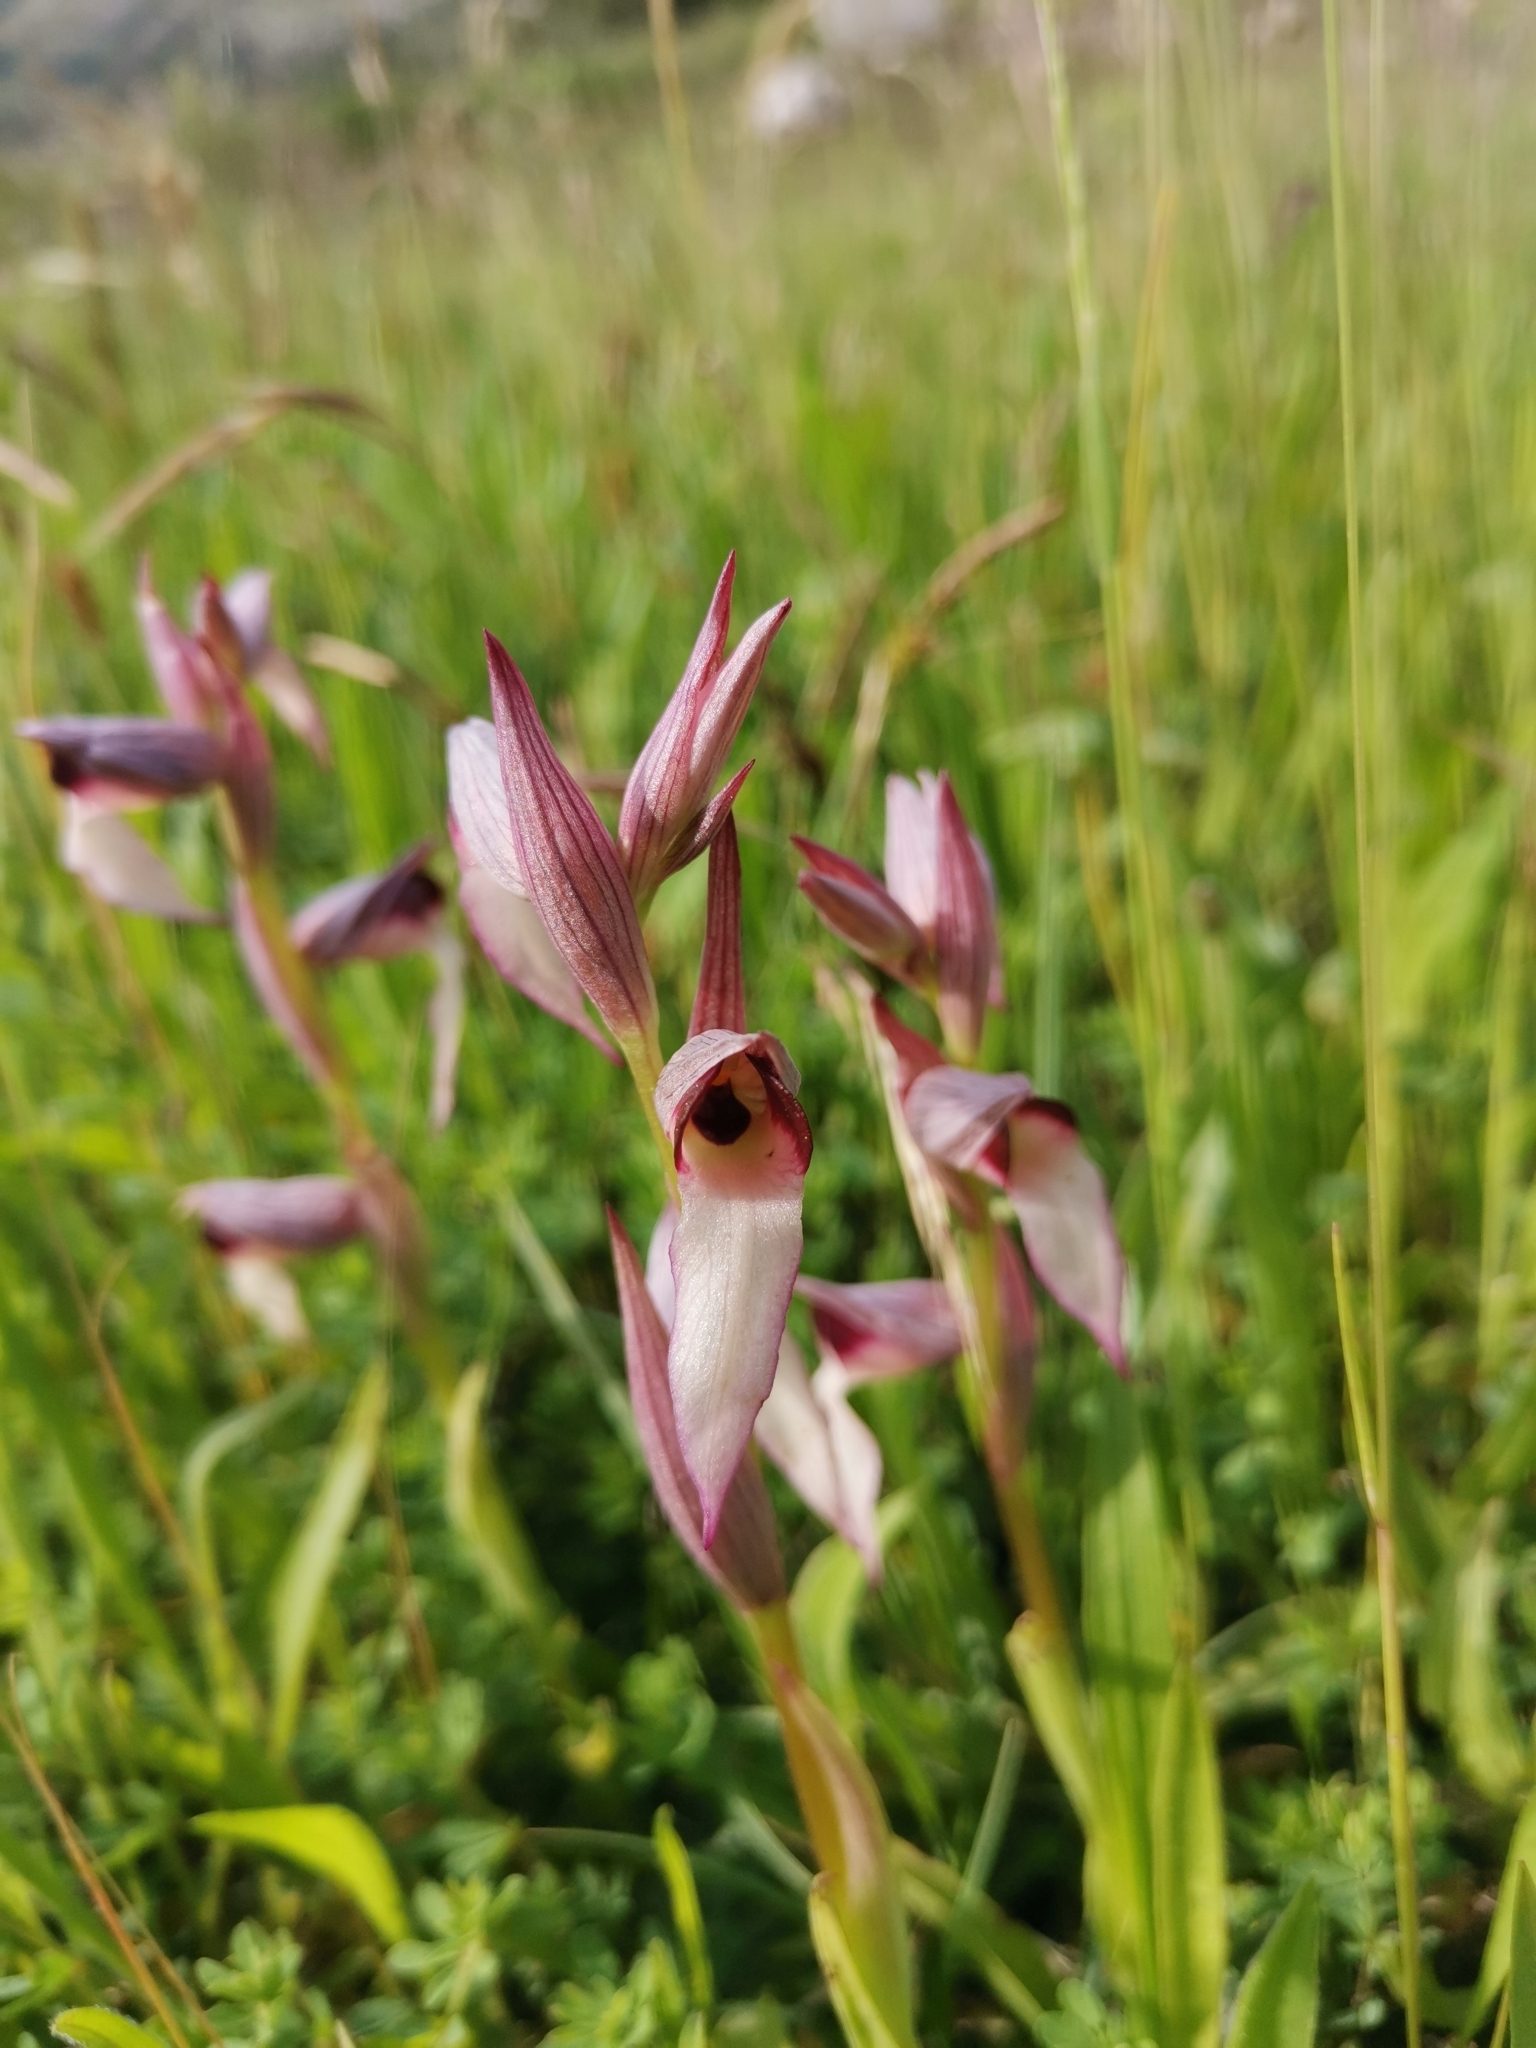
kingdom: Plantae
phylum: Tracheophyta
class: Liliopsida
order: Asparagales
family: Orchidaceae
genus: Serapias
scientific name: Serapias lingua
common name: Tongue-orchid
